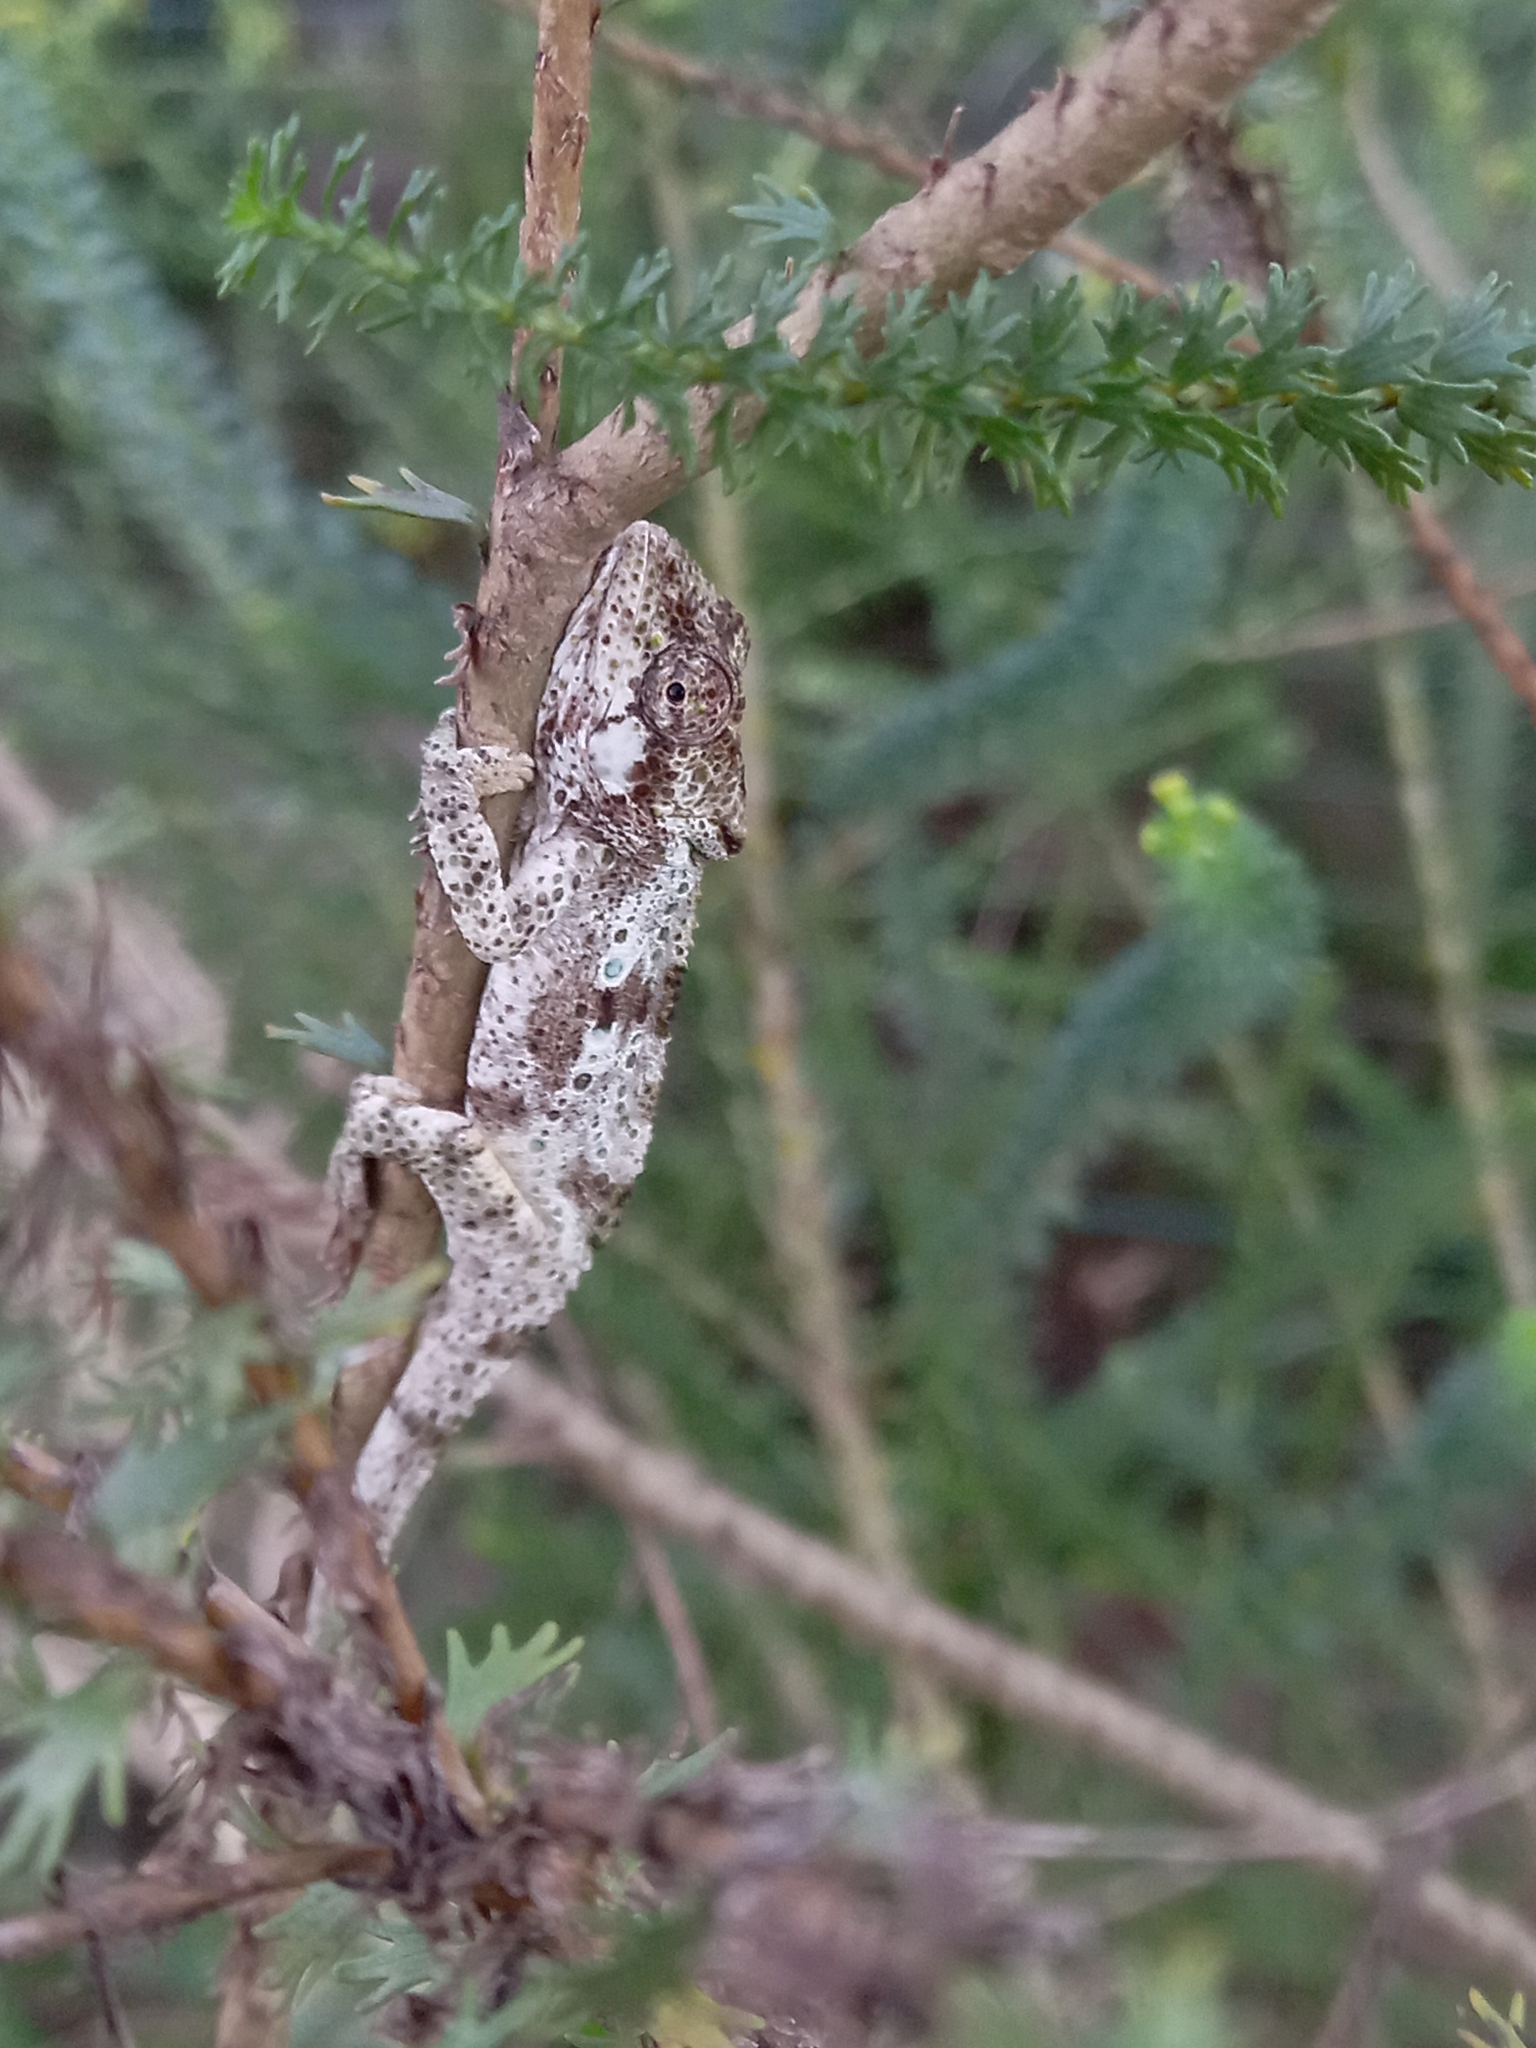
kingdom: Animalia
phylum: Chordata
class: Squamata
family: Chamaeleonidae
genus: Bradypodion
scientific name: Bradypodion damaranum
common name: Knysna dwarf chameleon
